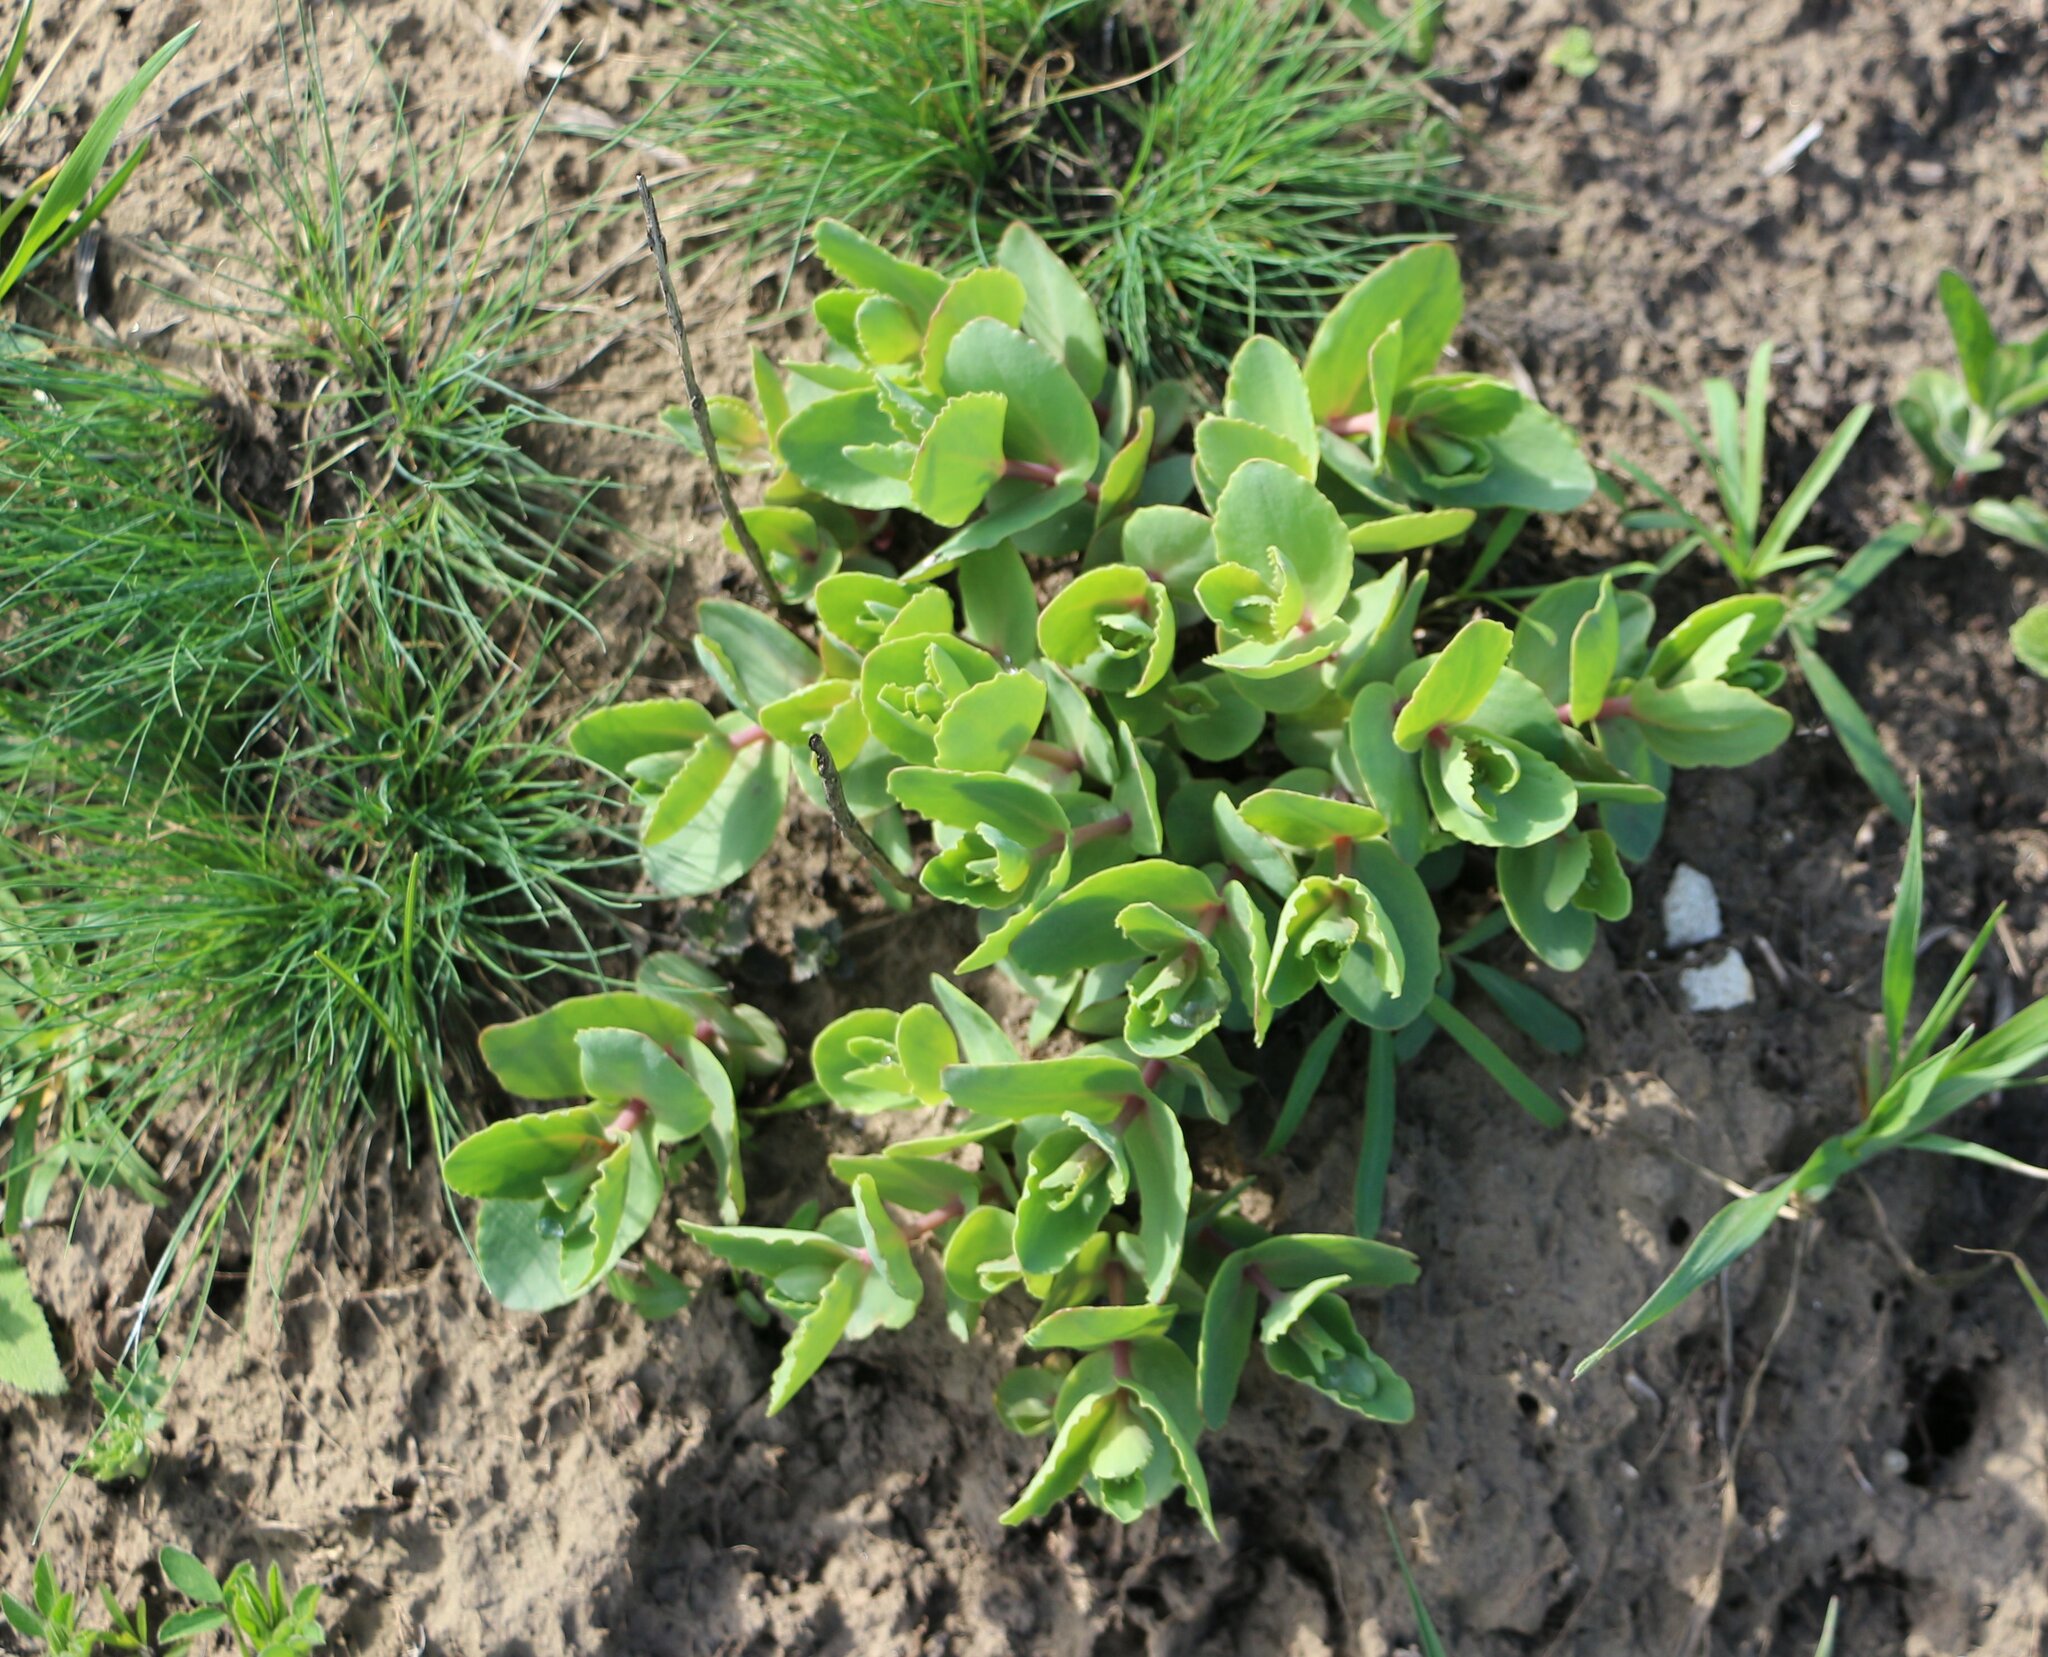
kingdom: Plantae
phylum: Tracheophyta
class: Magnoliopsida
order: Saxifragales
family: Crassulaceae
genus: Hylotelephium
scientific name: Hylotelephium maximum
